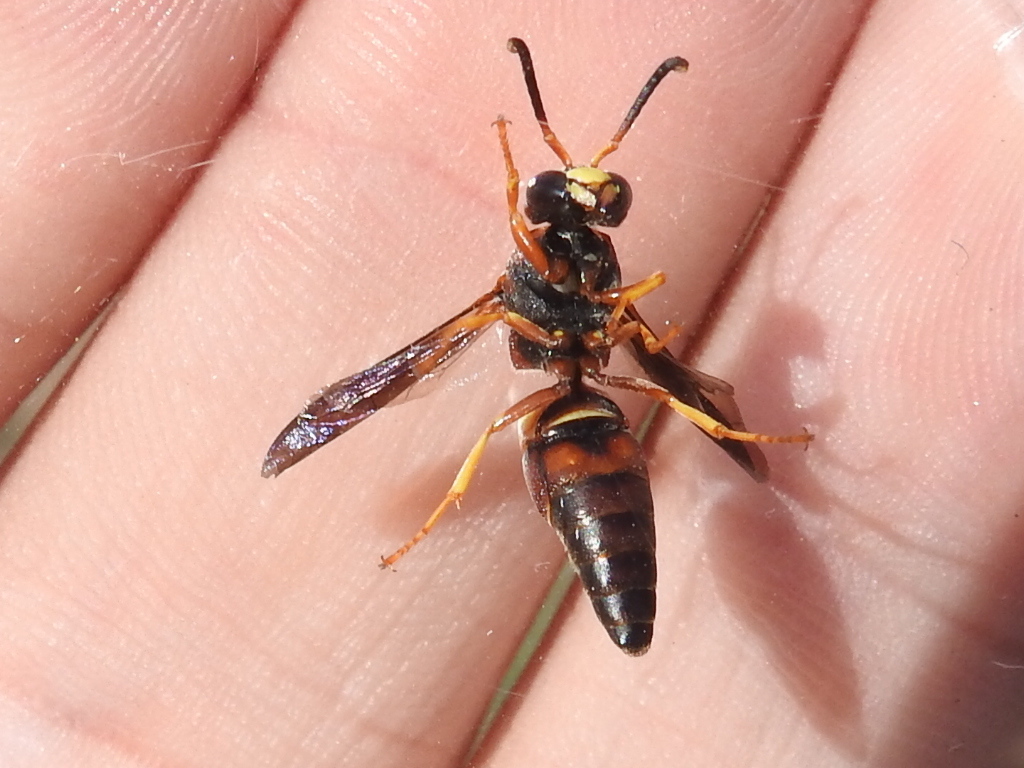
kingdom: Animalia
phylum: Arthropoda
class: Insecta
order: Hymenoptera
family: Eumenidae
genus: Euodynerus
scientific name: Euodynerus crypticus
